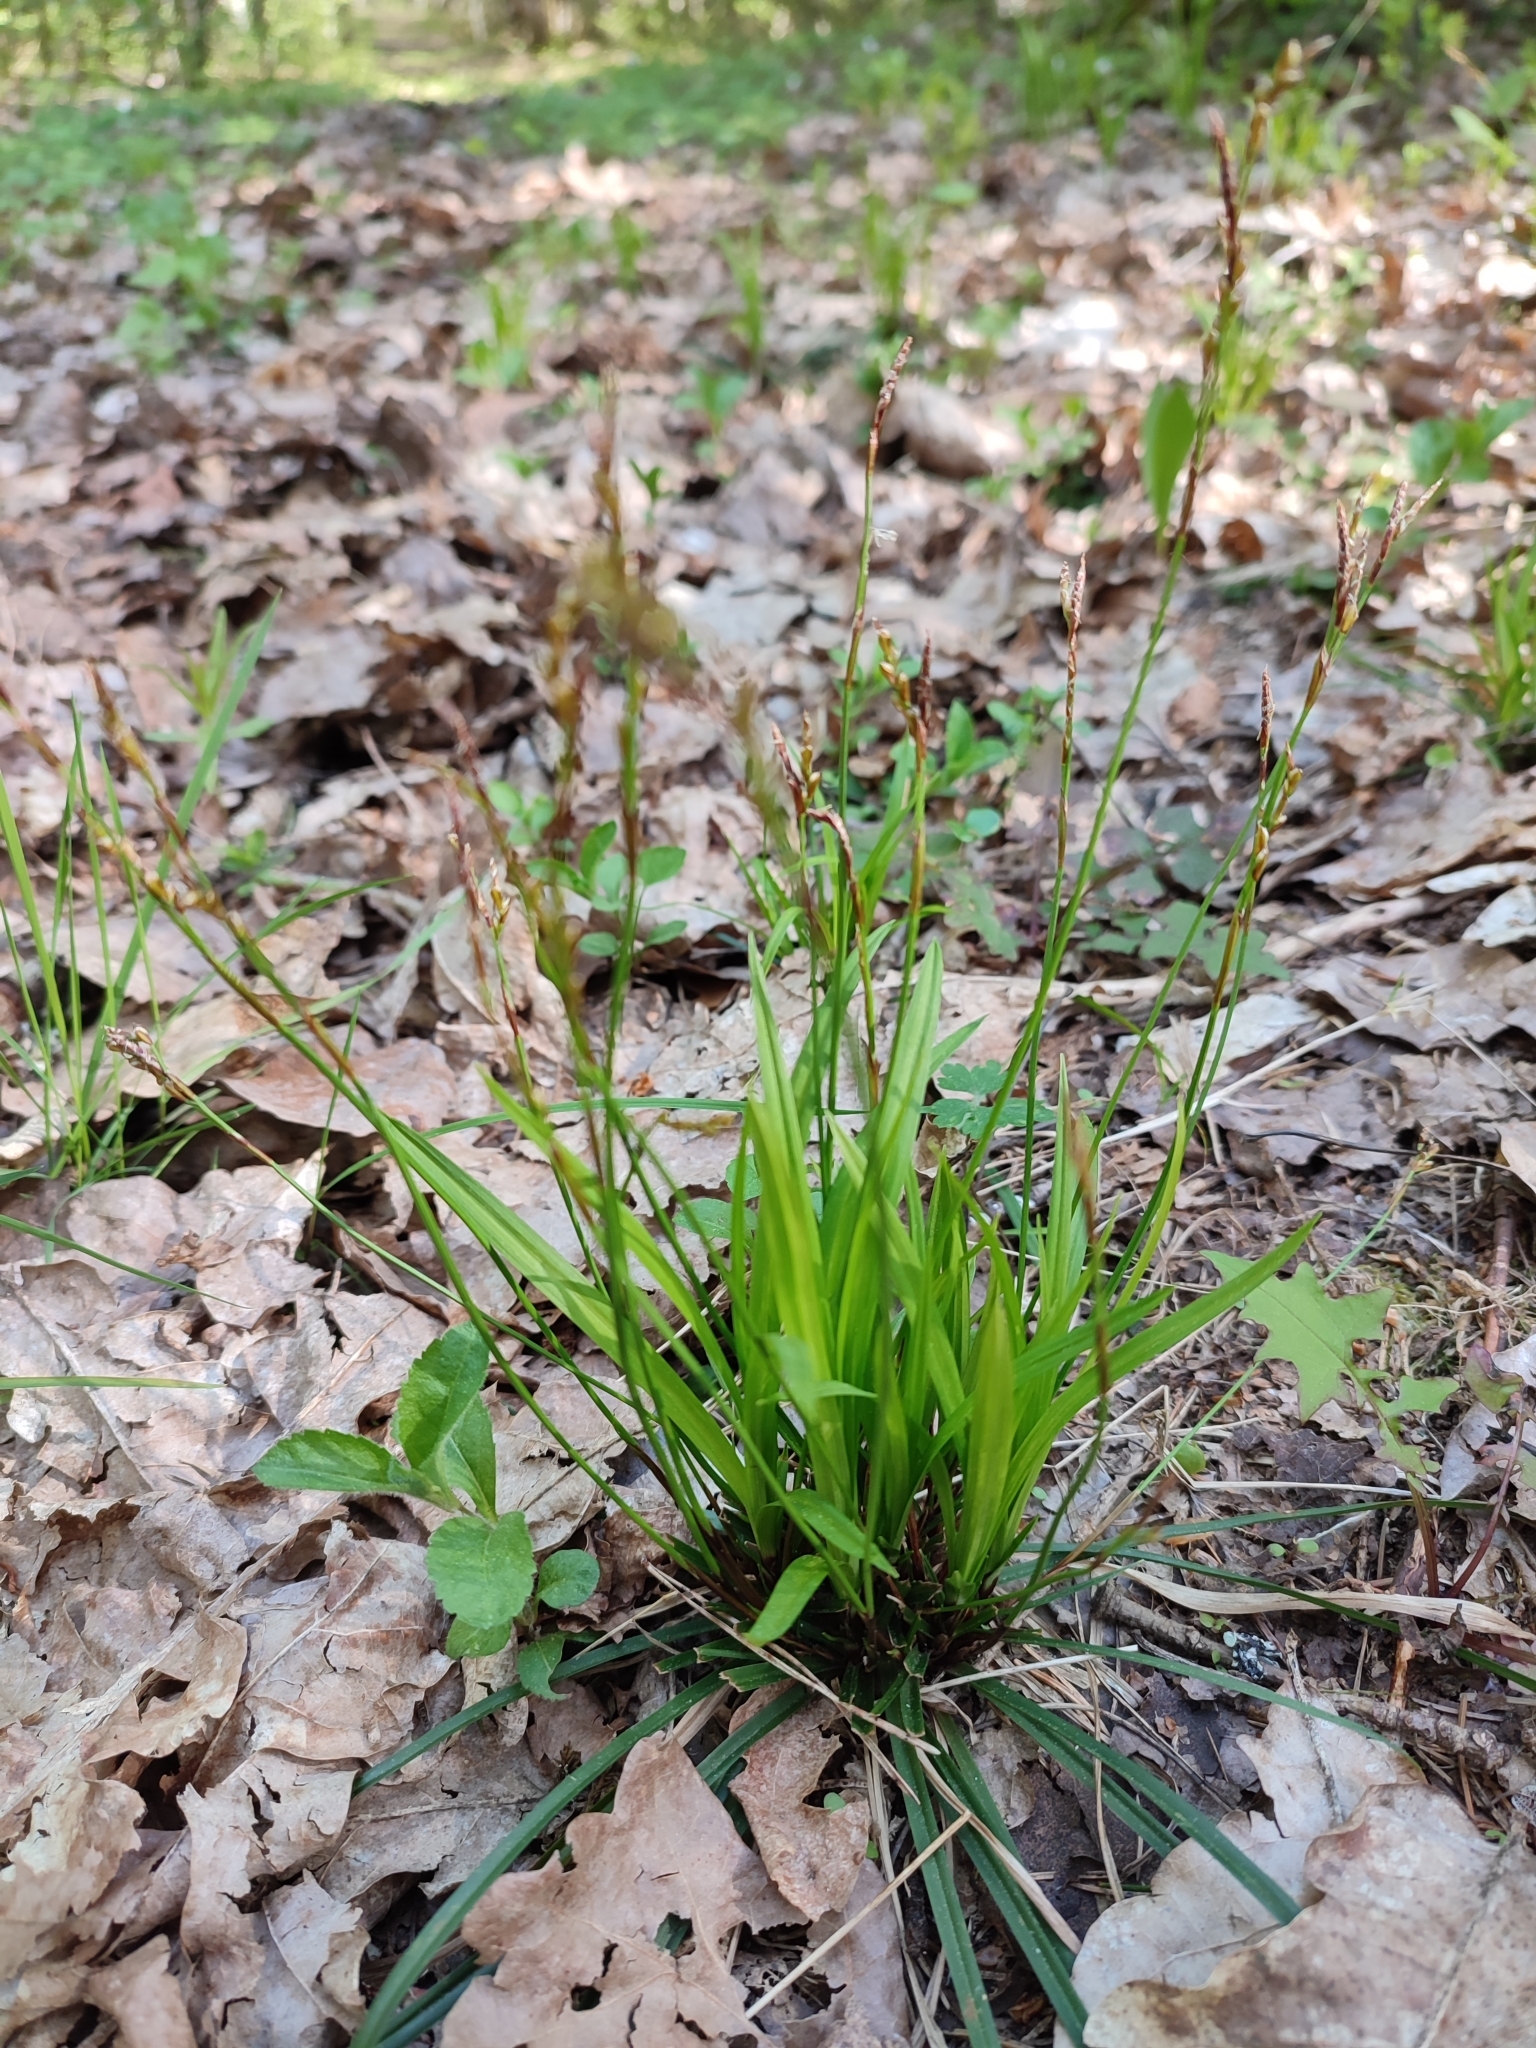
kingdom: Plantae
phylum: Tracheophyta
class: Liliopsida
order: Poales
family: Cyperaceae
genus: Carex
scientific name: Carex digitata
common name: Fingered sedge
